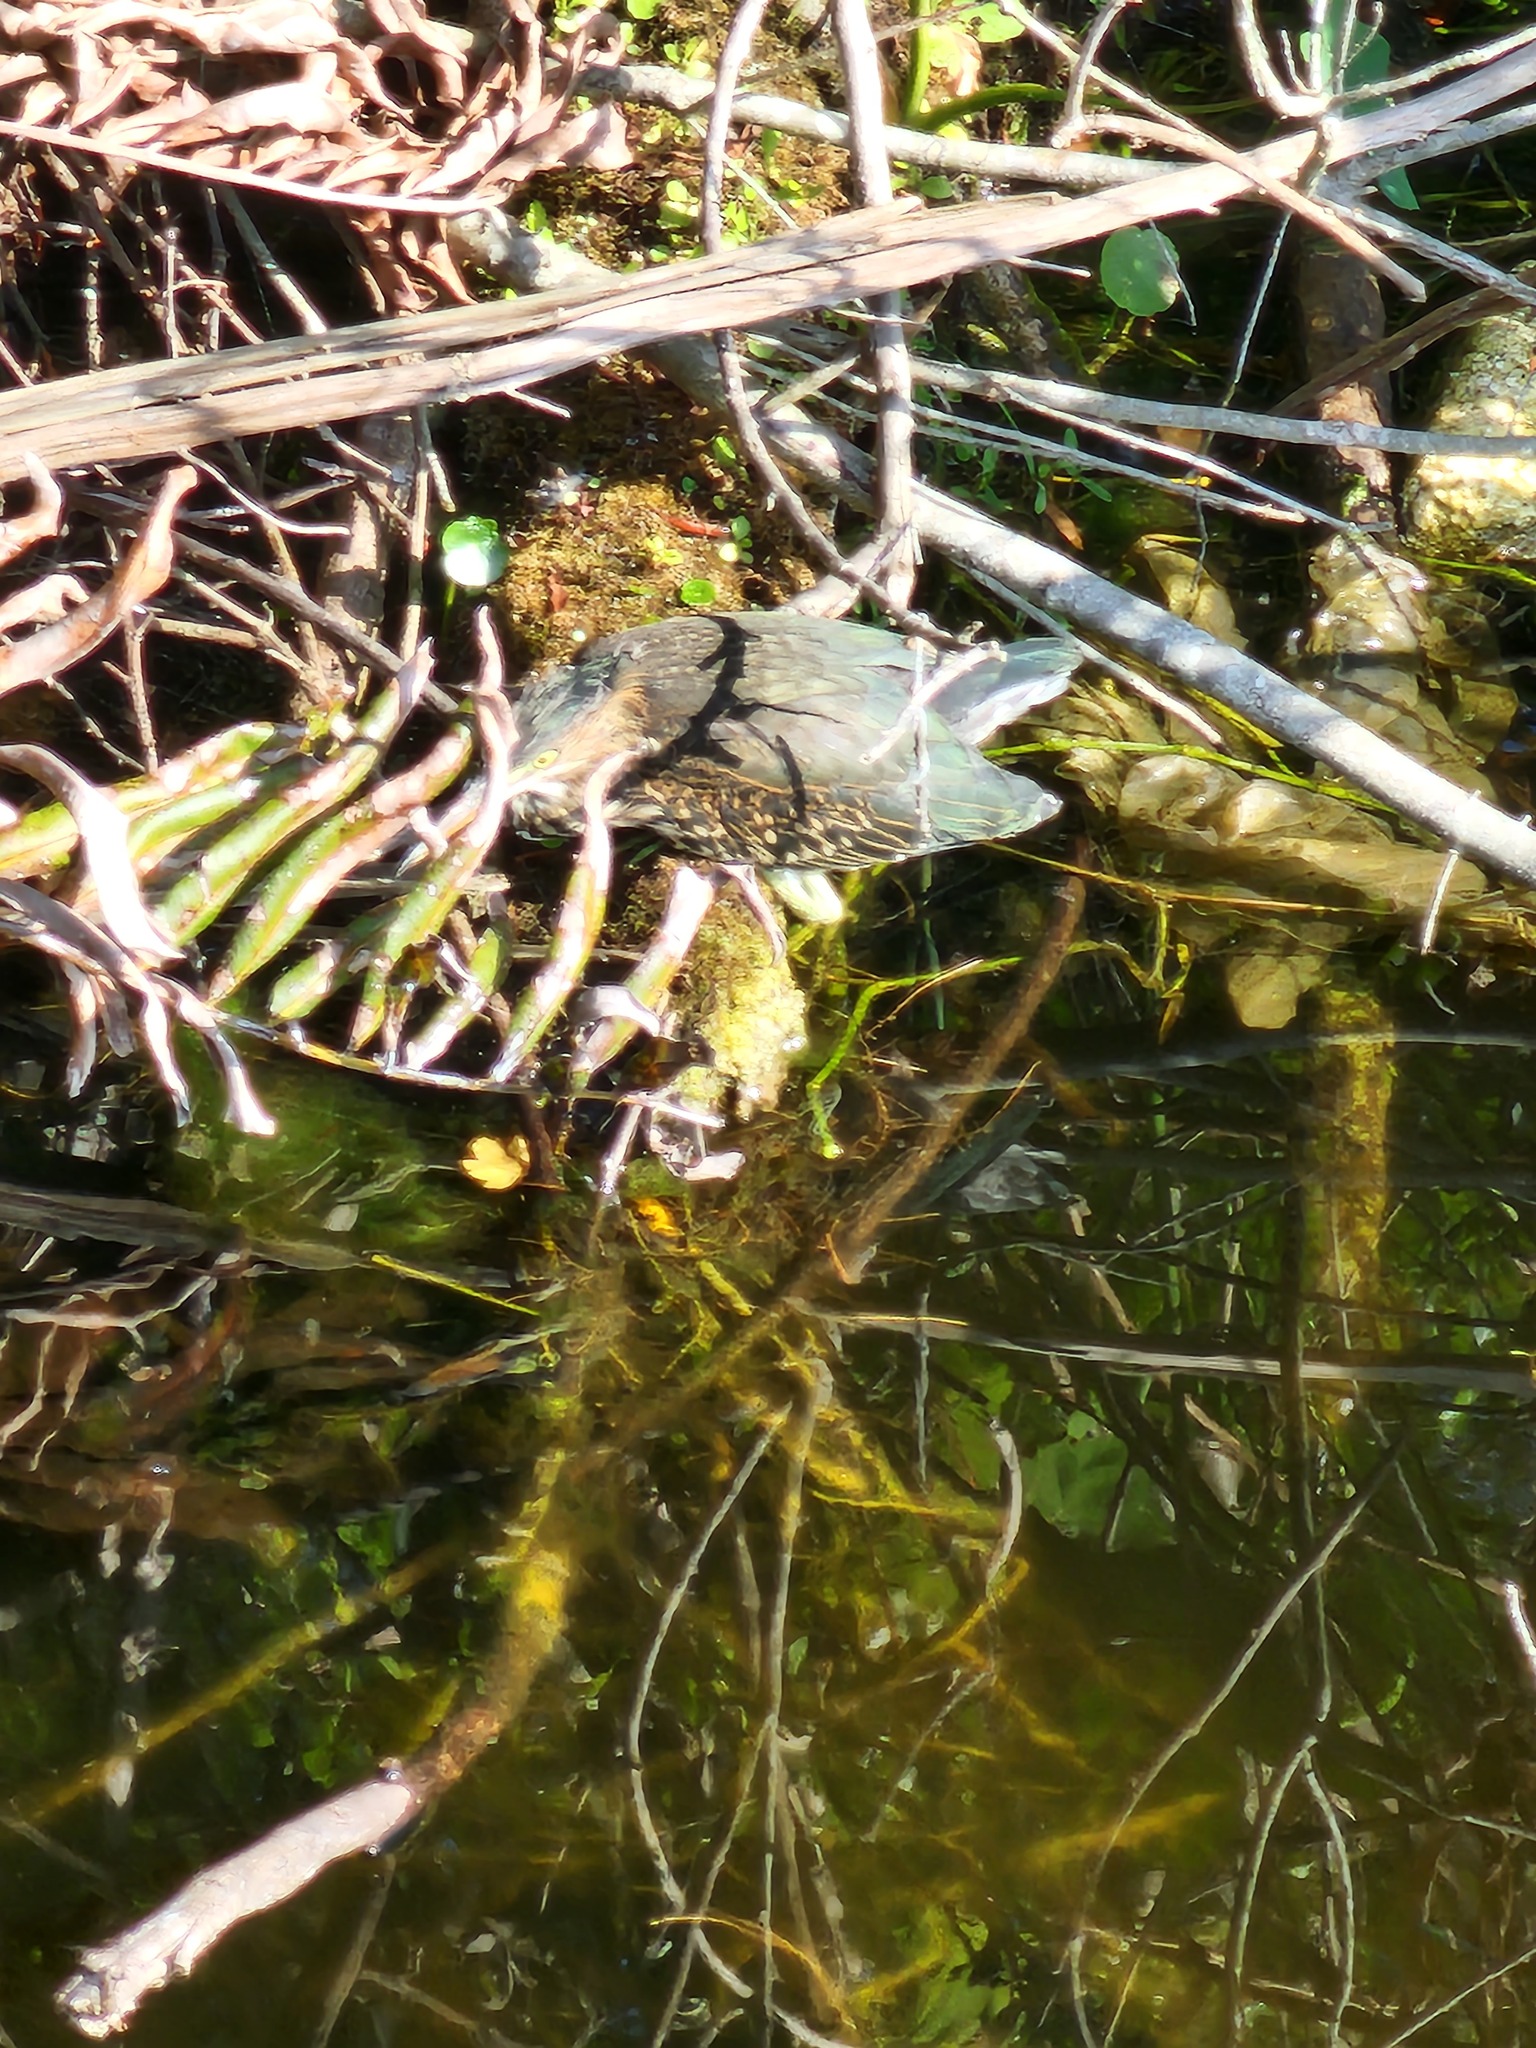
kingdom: Animalia
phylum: Chordata
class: Aves
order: Pelecaniformes
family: Ardeidae
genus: Butorides
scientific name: Butorides virescens
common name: Green heron
